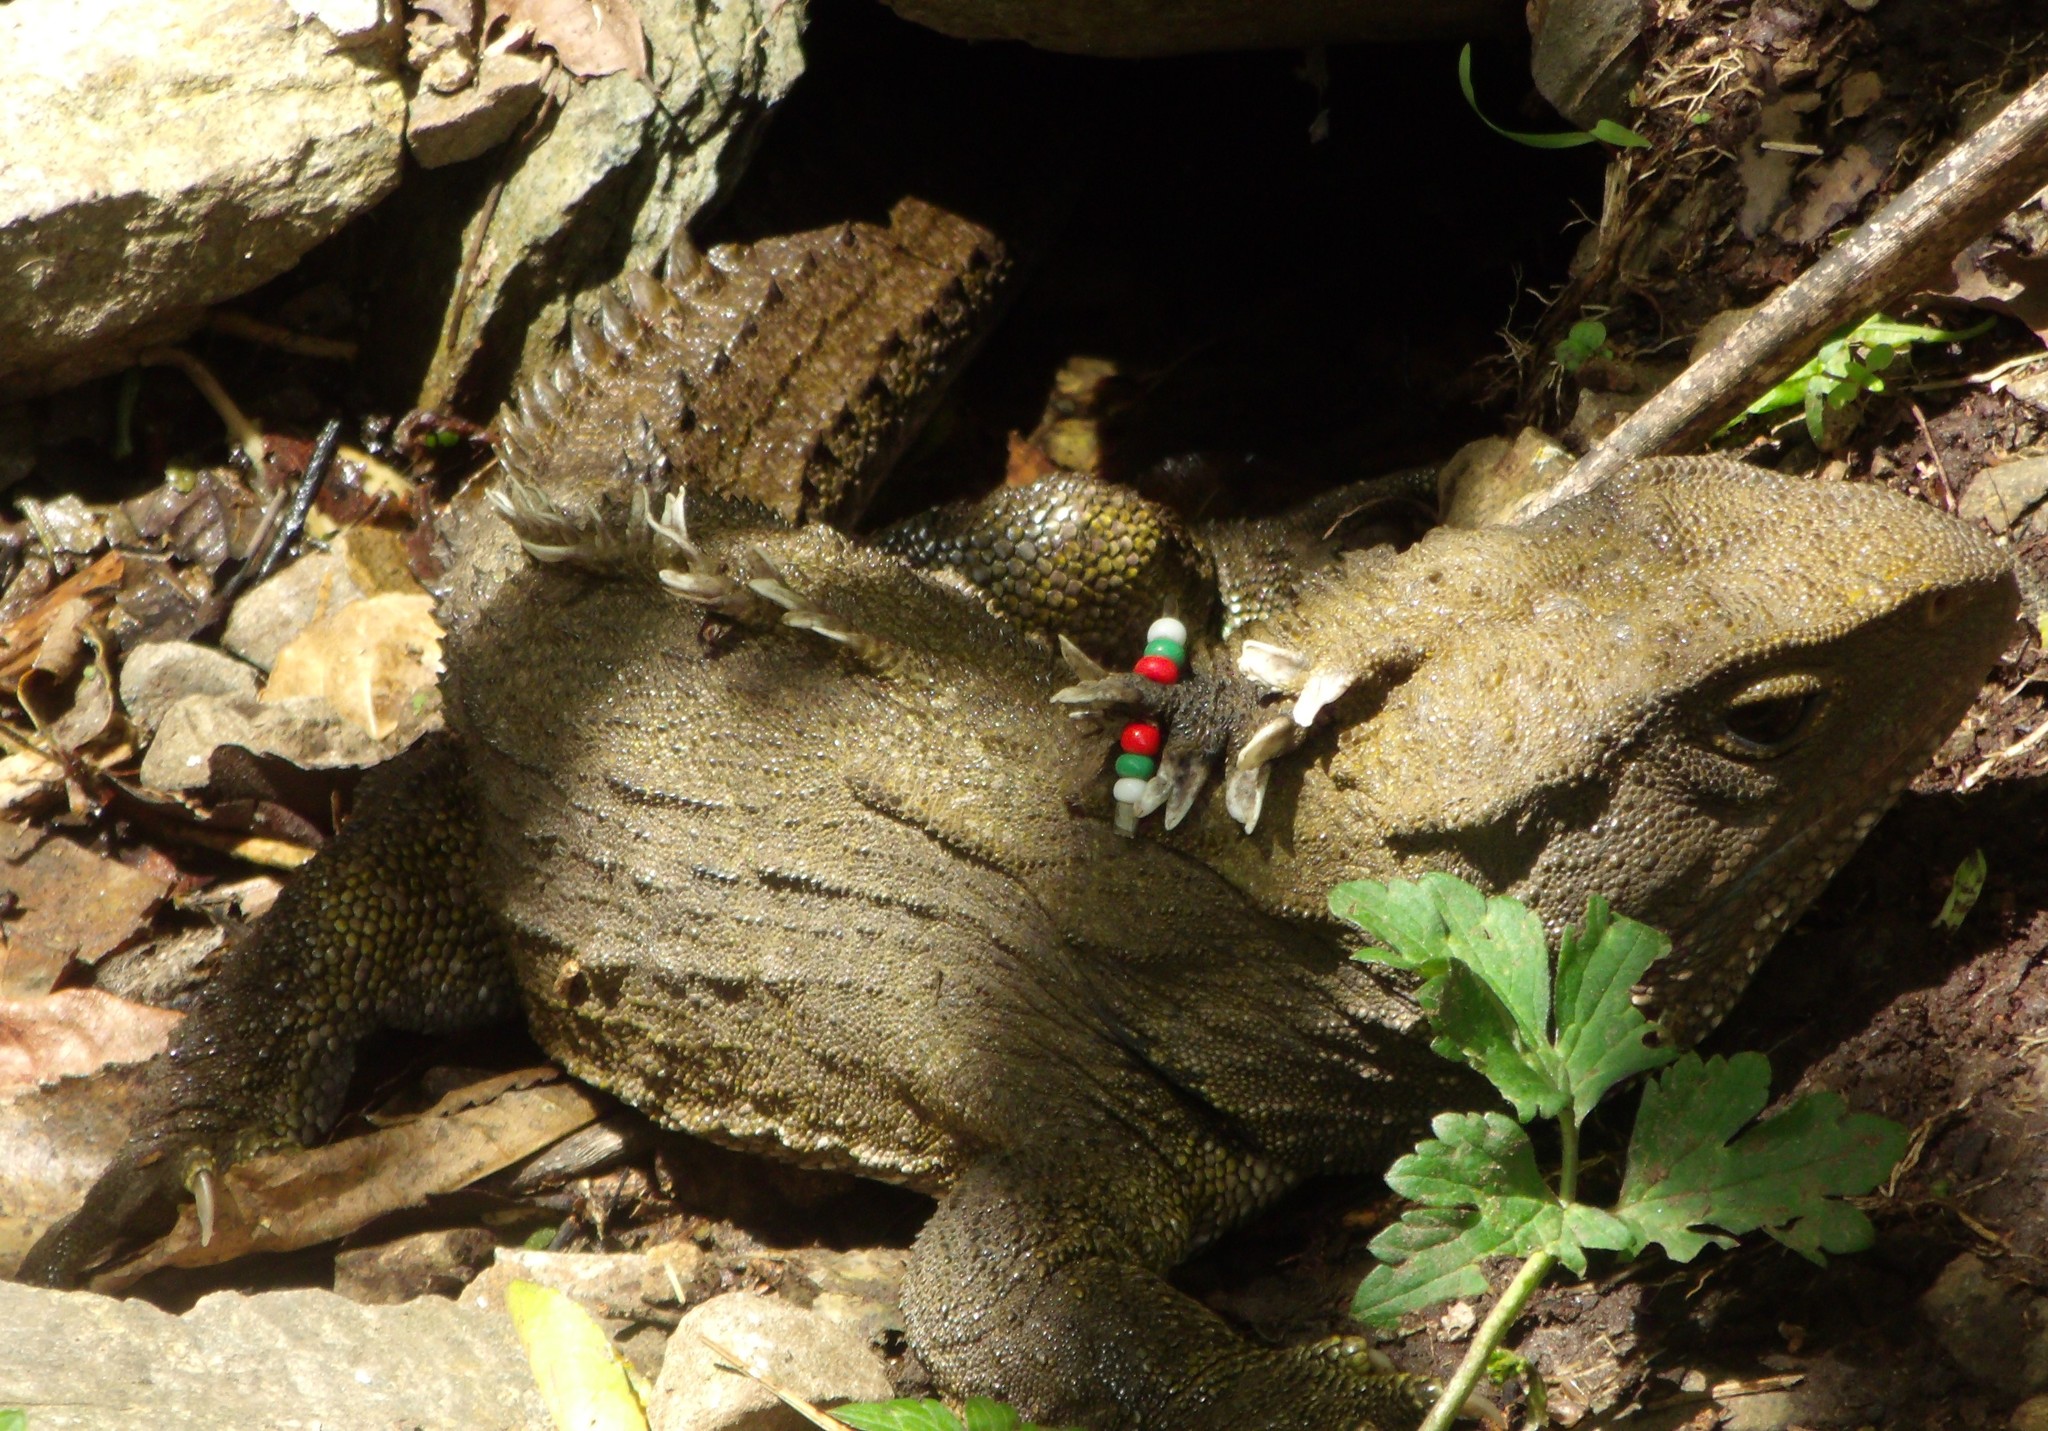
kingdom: Animalia
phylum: Chordata
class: Sphenodontia
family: Sphenodontidae
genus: Sphenodon
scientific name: Sphenodon punctatus
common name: Tuatara
